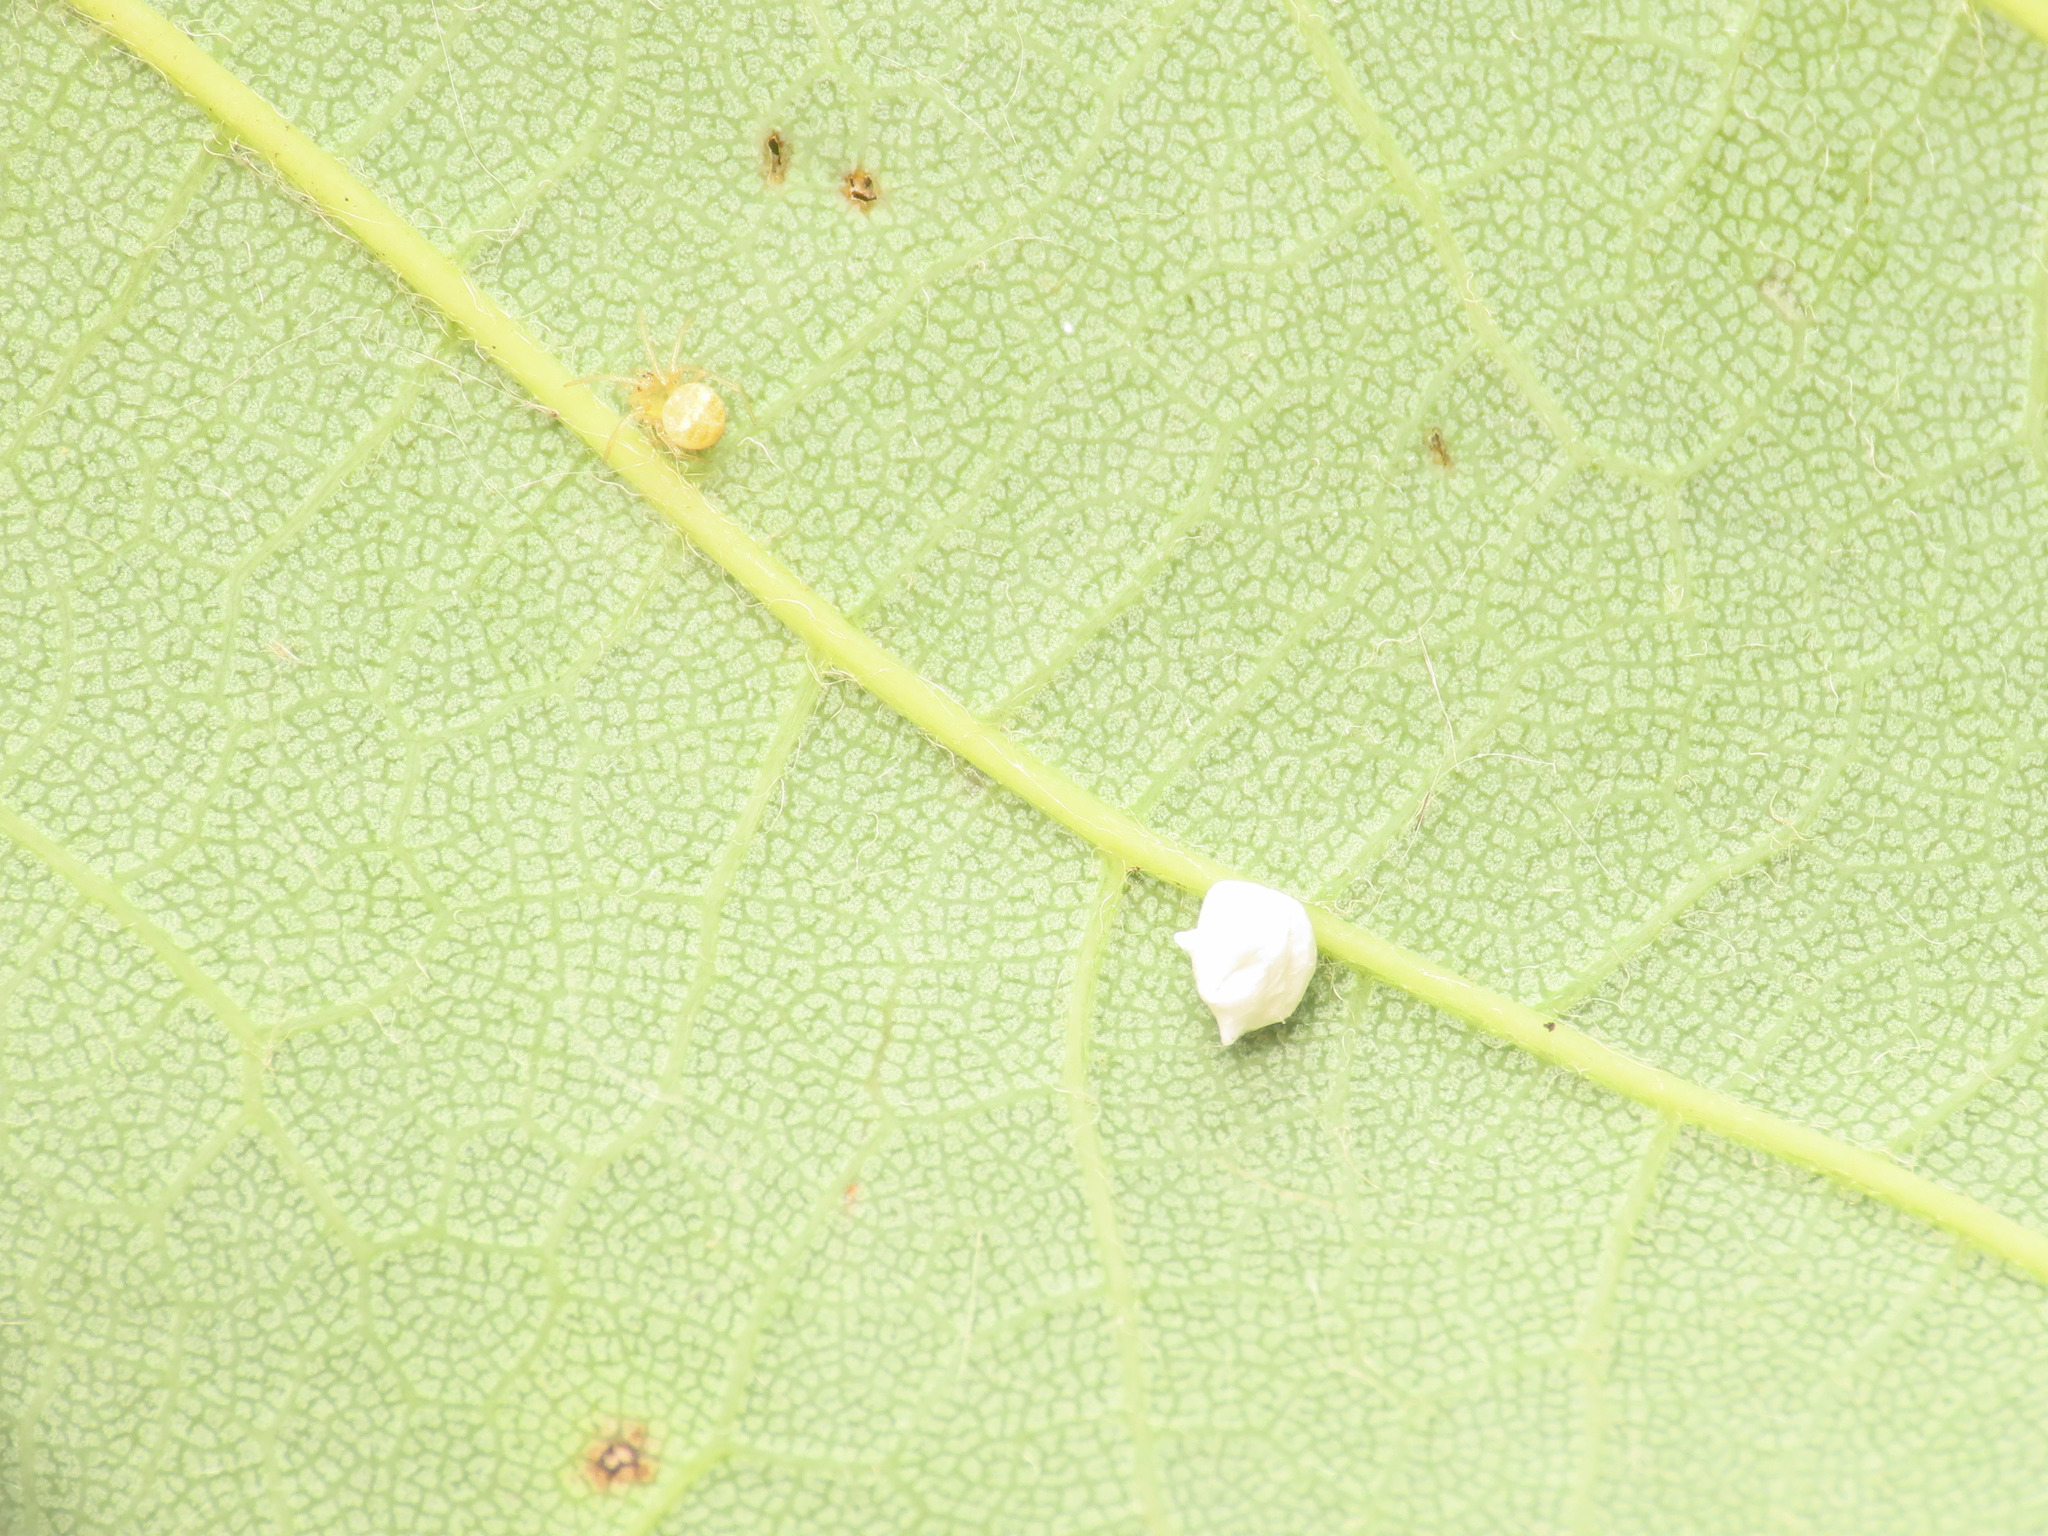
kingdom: Animalia
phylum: Arthropoda
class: Arachnida
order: Araneae
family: Theridiidae
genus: Paidiscura
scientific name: Paidiscura pallens
